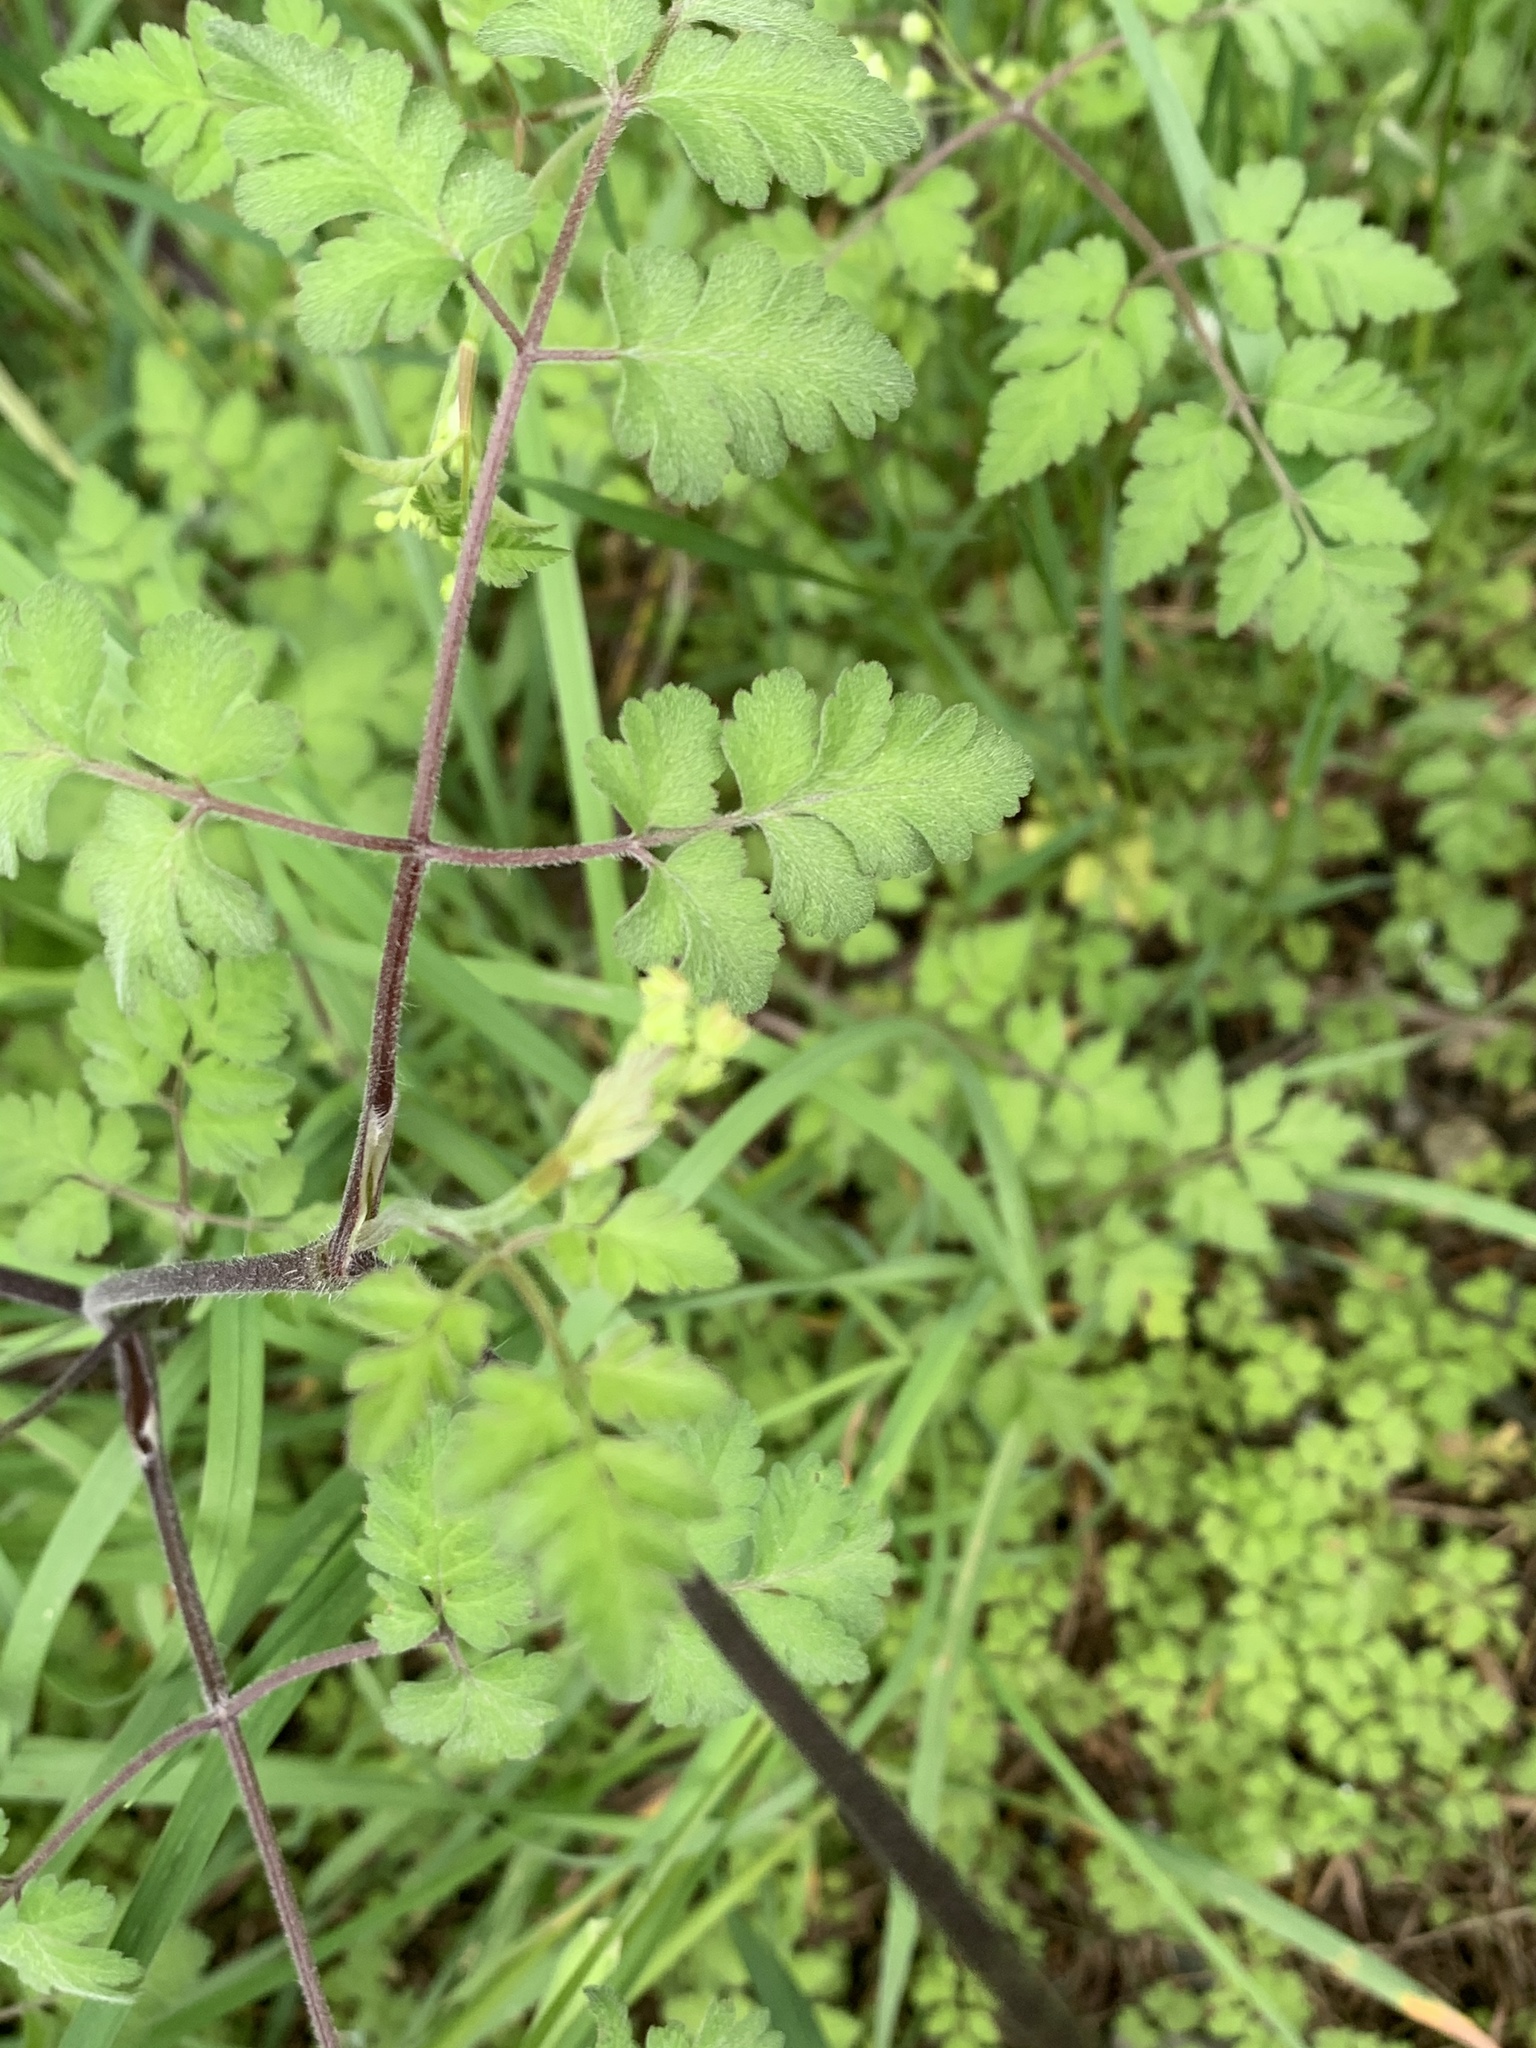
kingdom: Plantae
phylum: Tracheophyta
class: Magnoliopsida
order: Apiales
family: Apiaceae
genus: Chaerophyllum
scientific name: Chaerophyllum temulum
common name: Rough chervil
